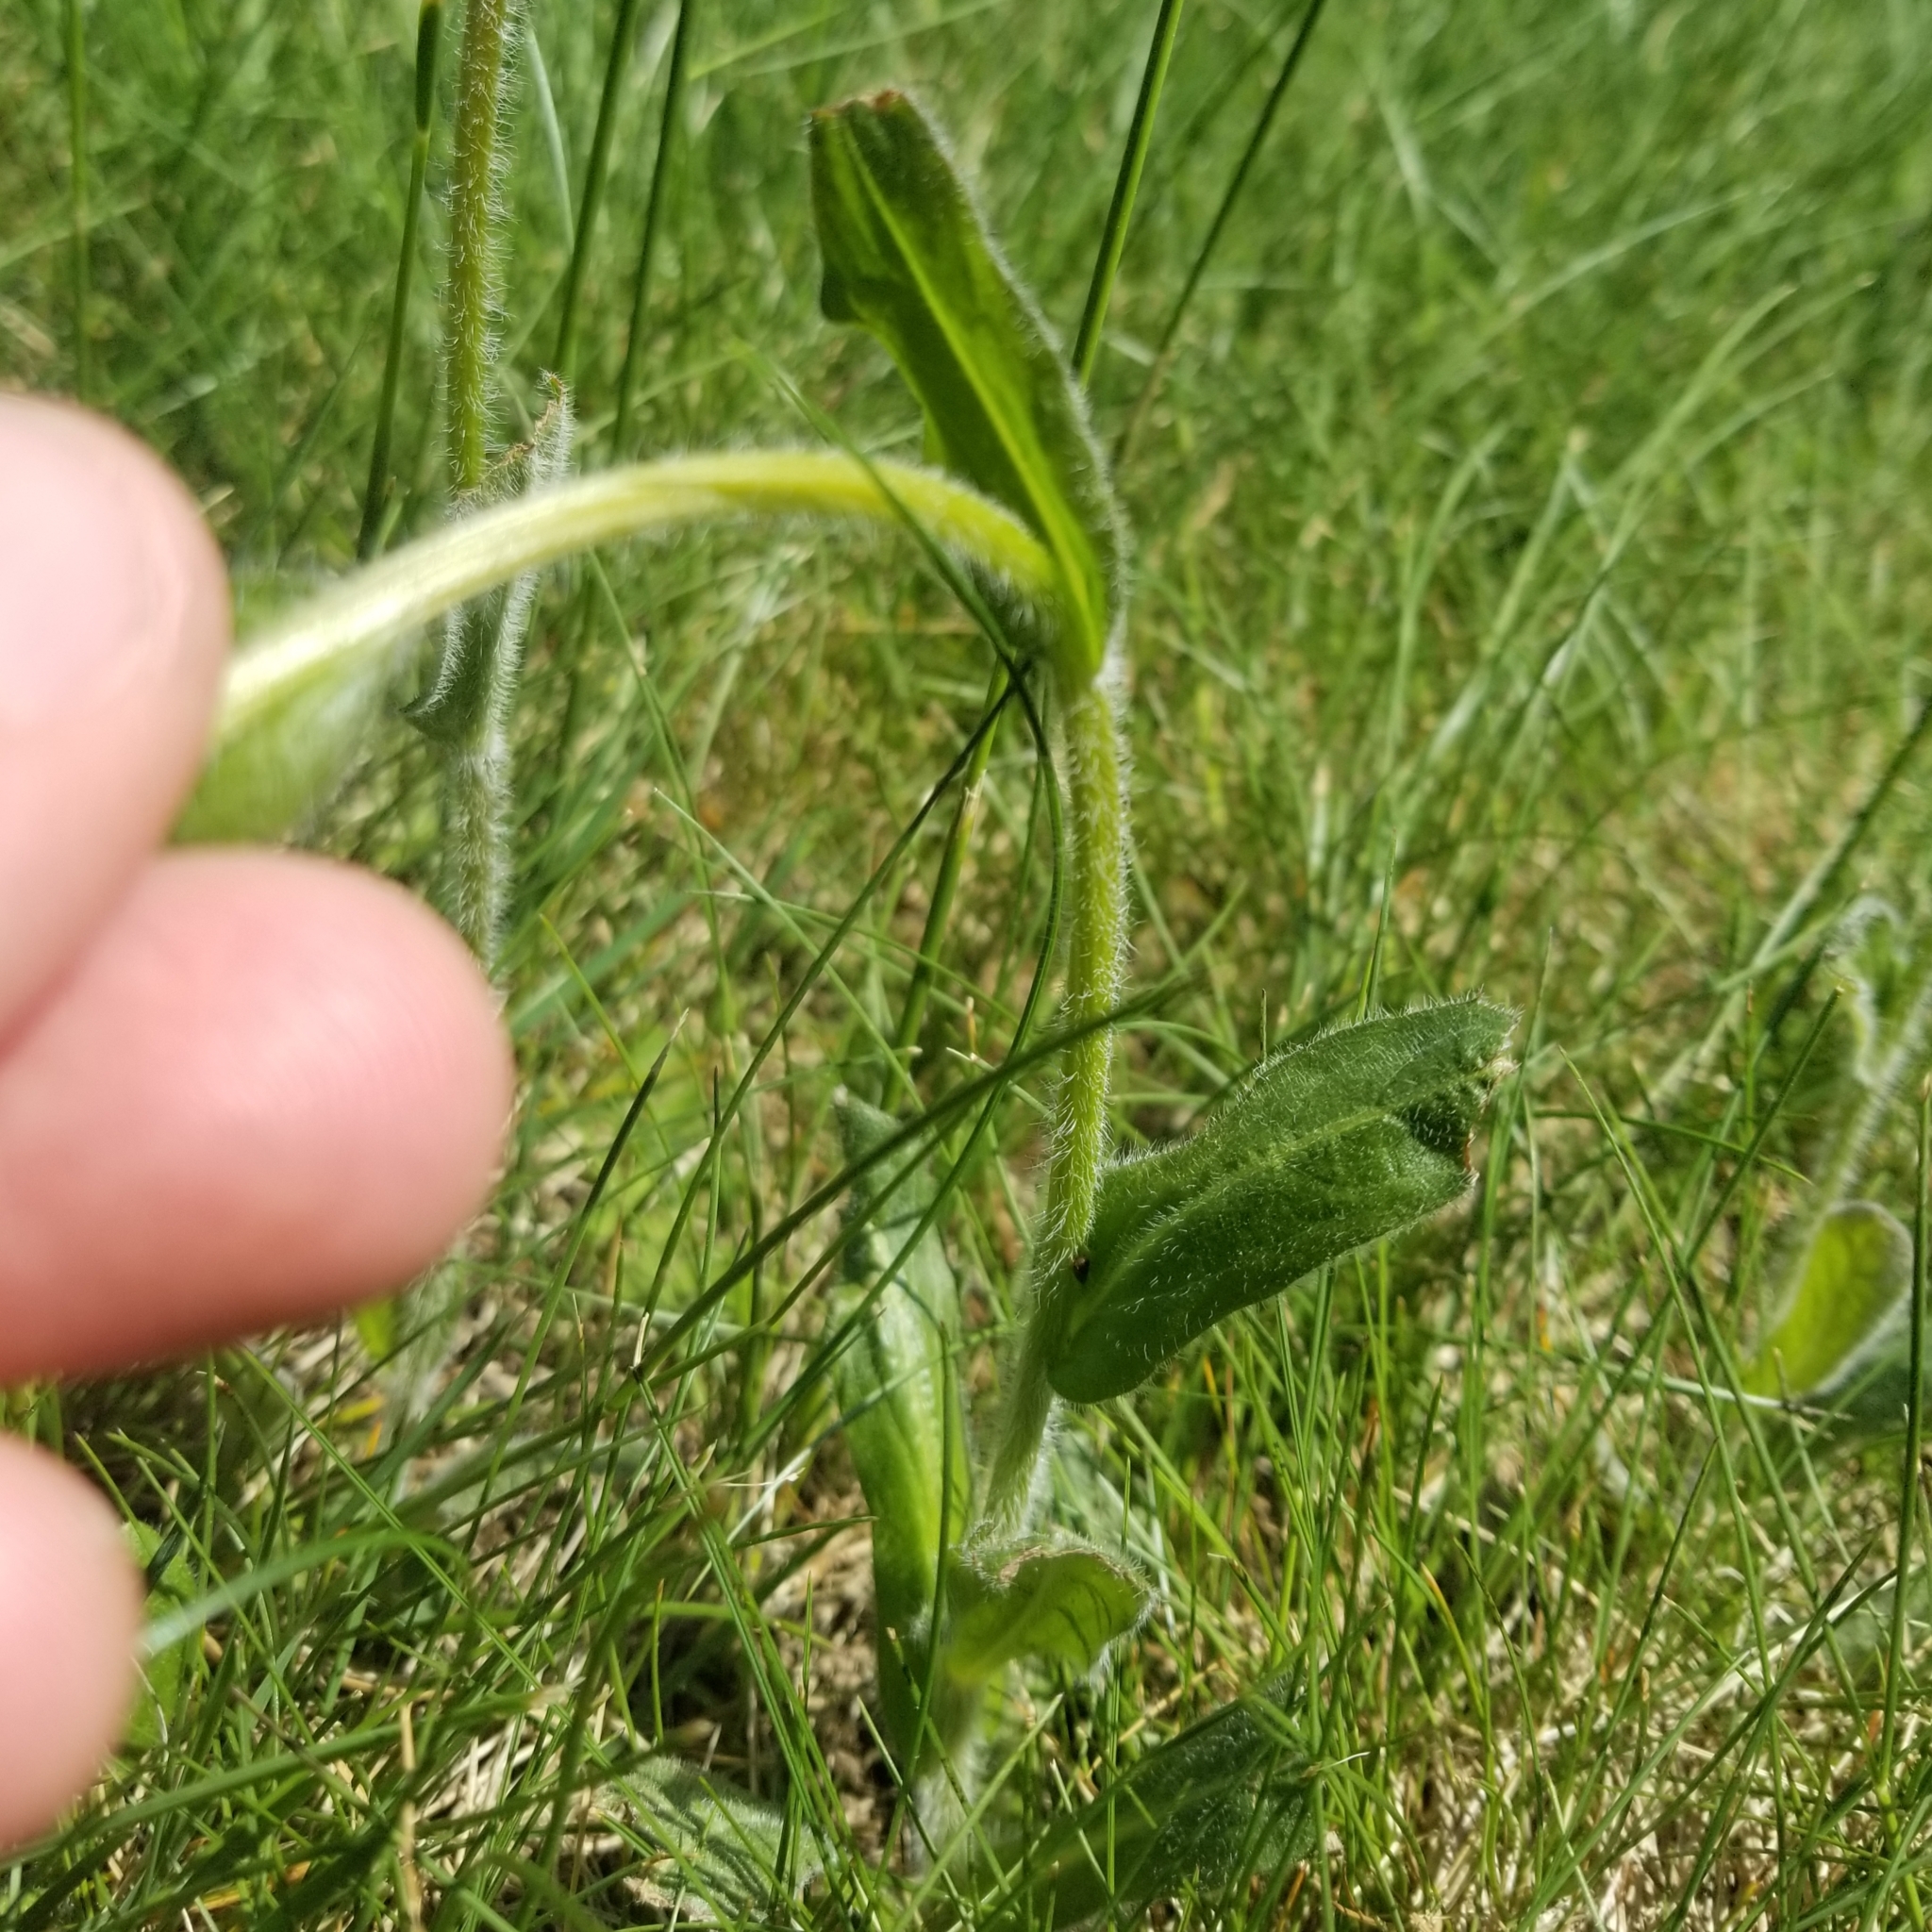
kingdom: Plantae
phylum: Tracheophyta
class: Magnoliopsida
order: Asterales
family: Asteraceae
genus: Erigeron
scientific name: Erigeron pulchellus
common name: Hairy fleabane
